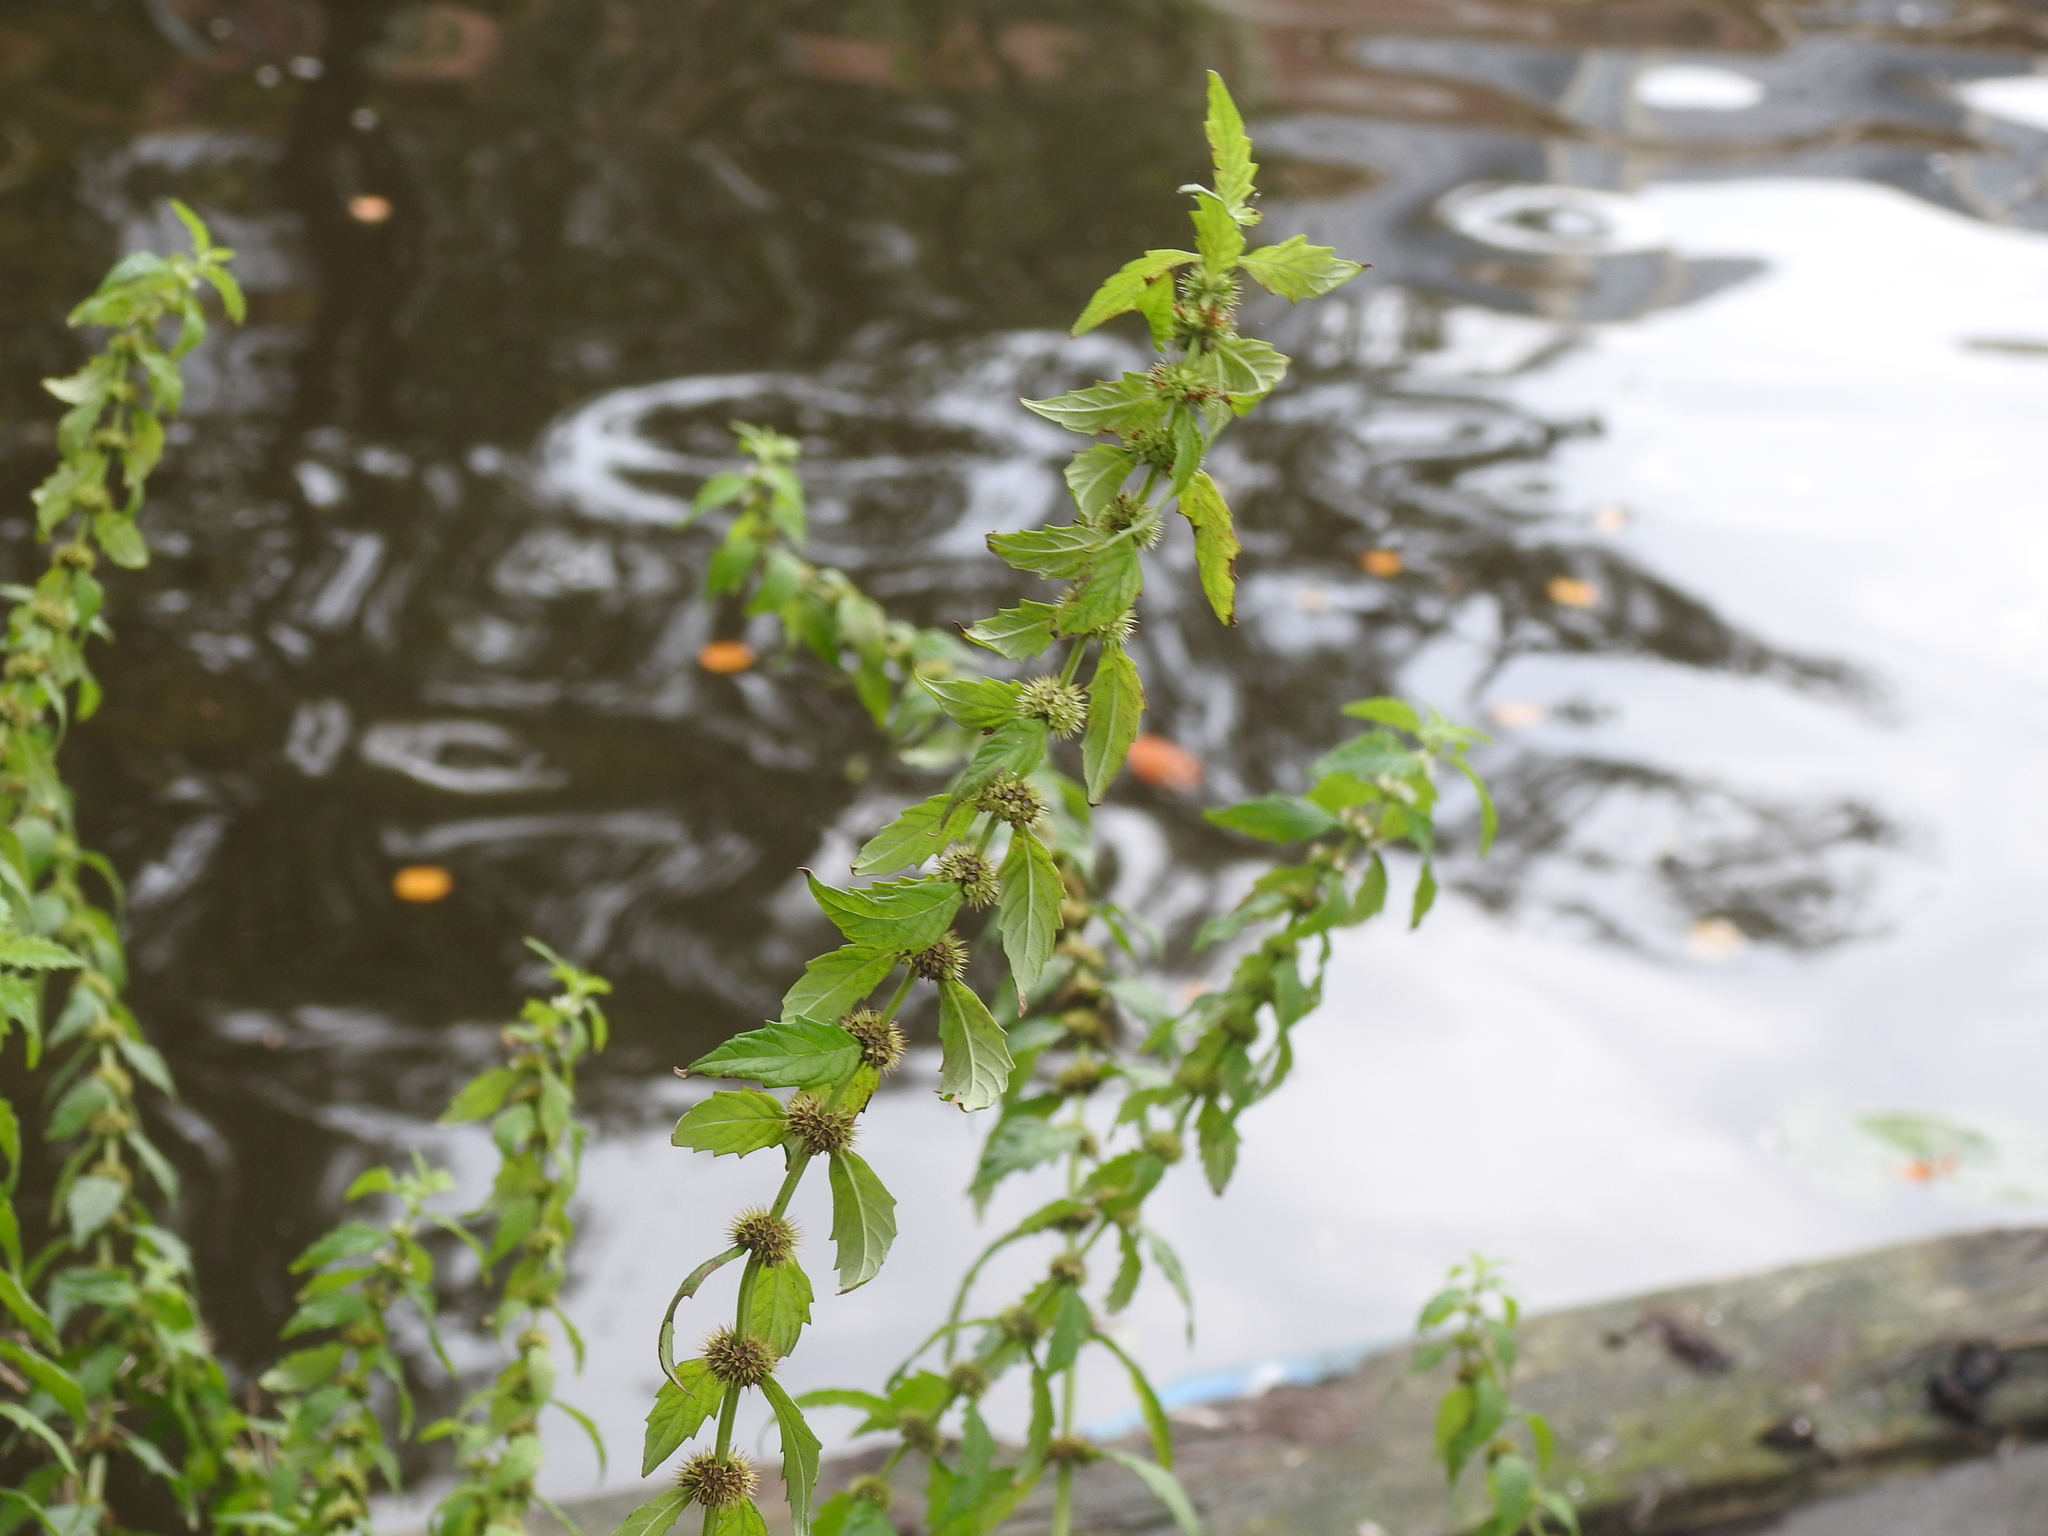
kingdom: Plantae
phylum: Tracheophyta
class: Magnoliopsida
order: Lamiales
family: Lamiaceae
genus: Lycopus
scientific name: Lycopus europaeus
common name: European bugleweed
